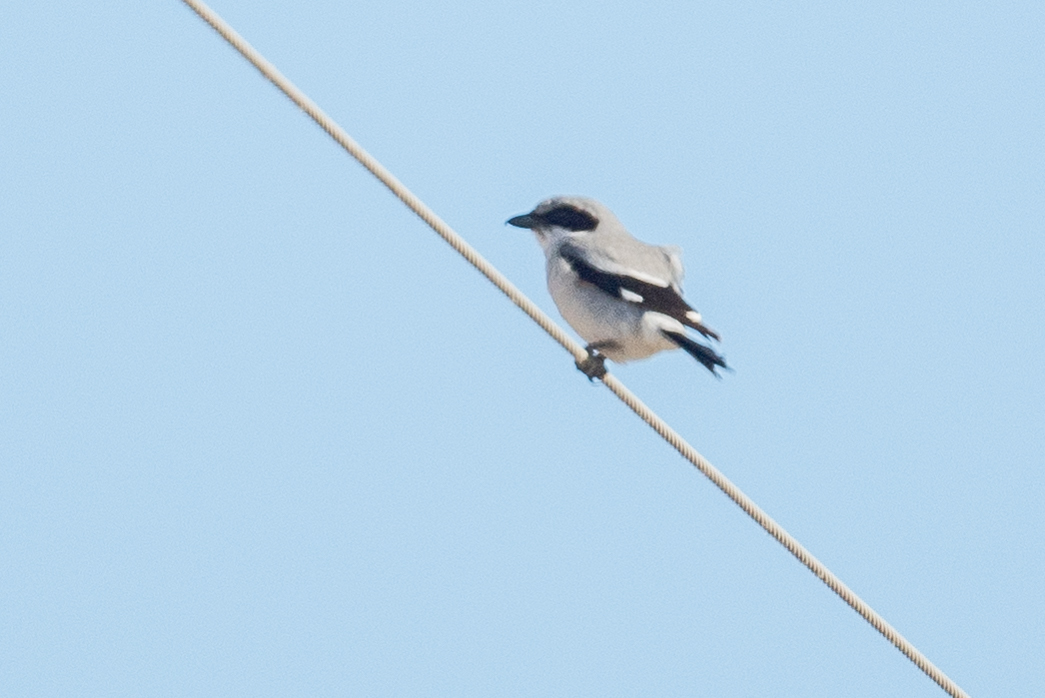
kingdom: Animalia
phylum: Chordata
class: Aves
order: Passeriformes
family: Laniidae
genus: Lanius
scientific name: Lanius ludovicianus
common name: Loggerhead shrike
